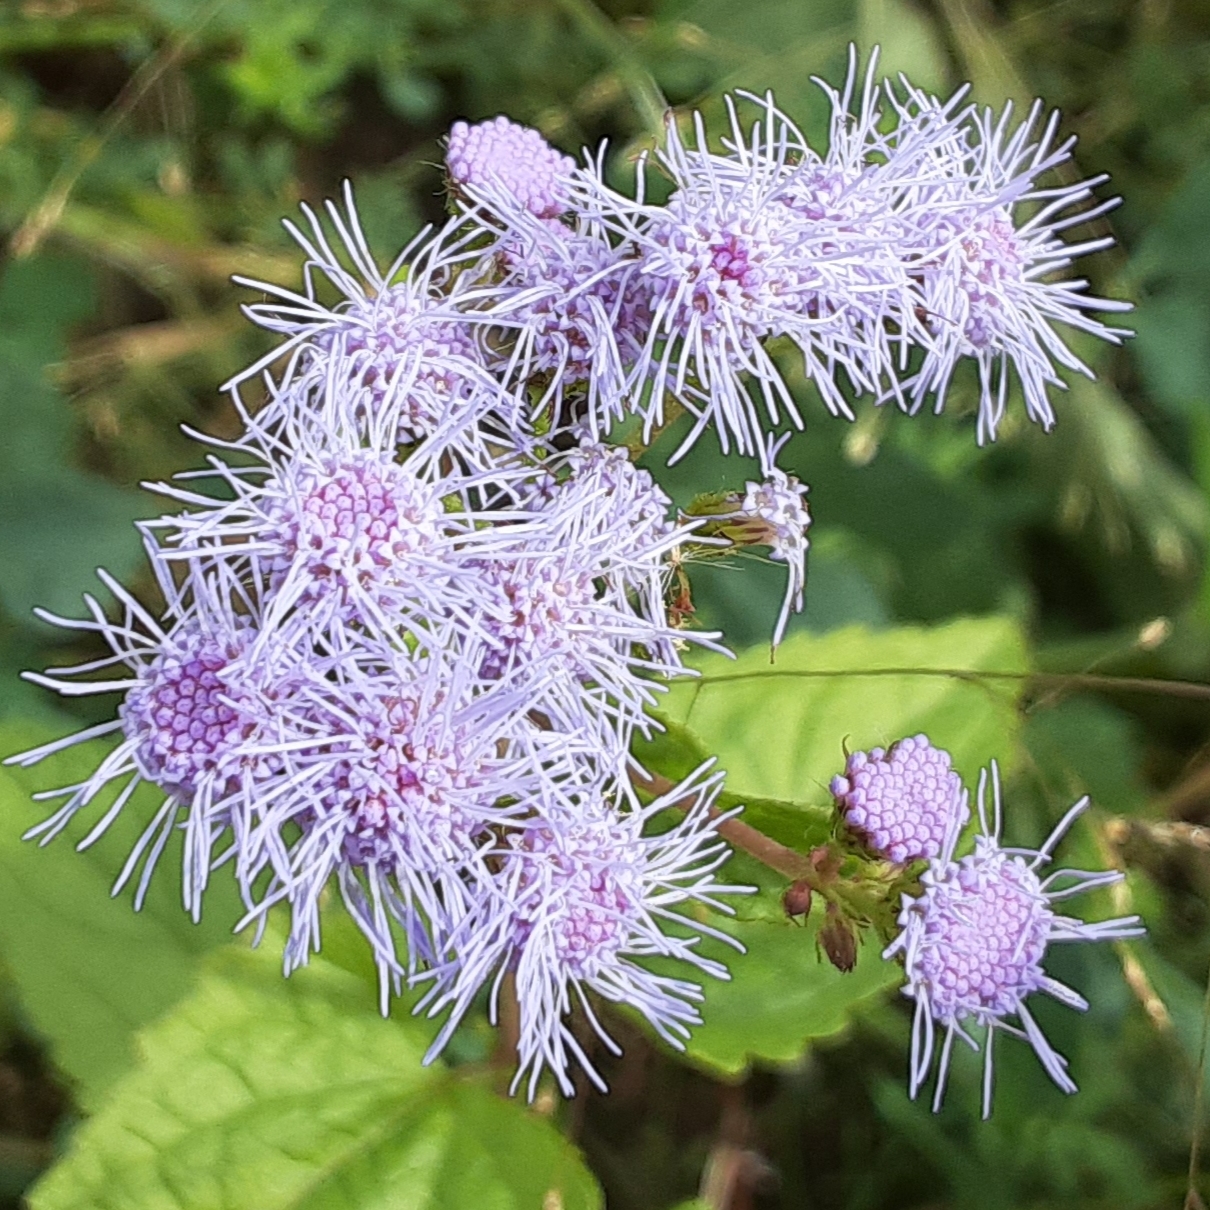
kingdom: Plantae
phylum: Tracheophyta
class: Magnoliopsida
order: Asterales
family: Asteraceae
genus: Conoclinium
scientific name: Conoclinium coelestinum
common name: Blue mistflower
